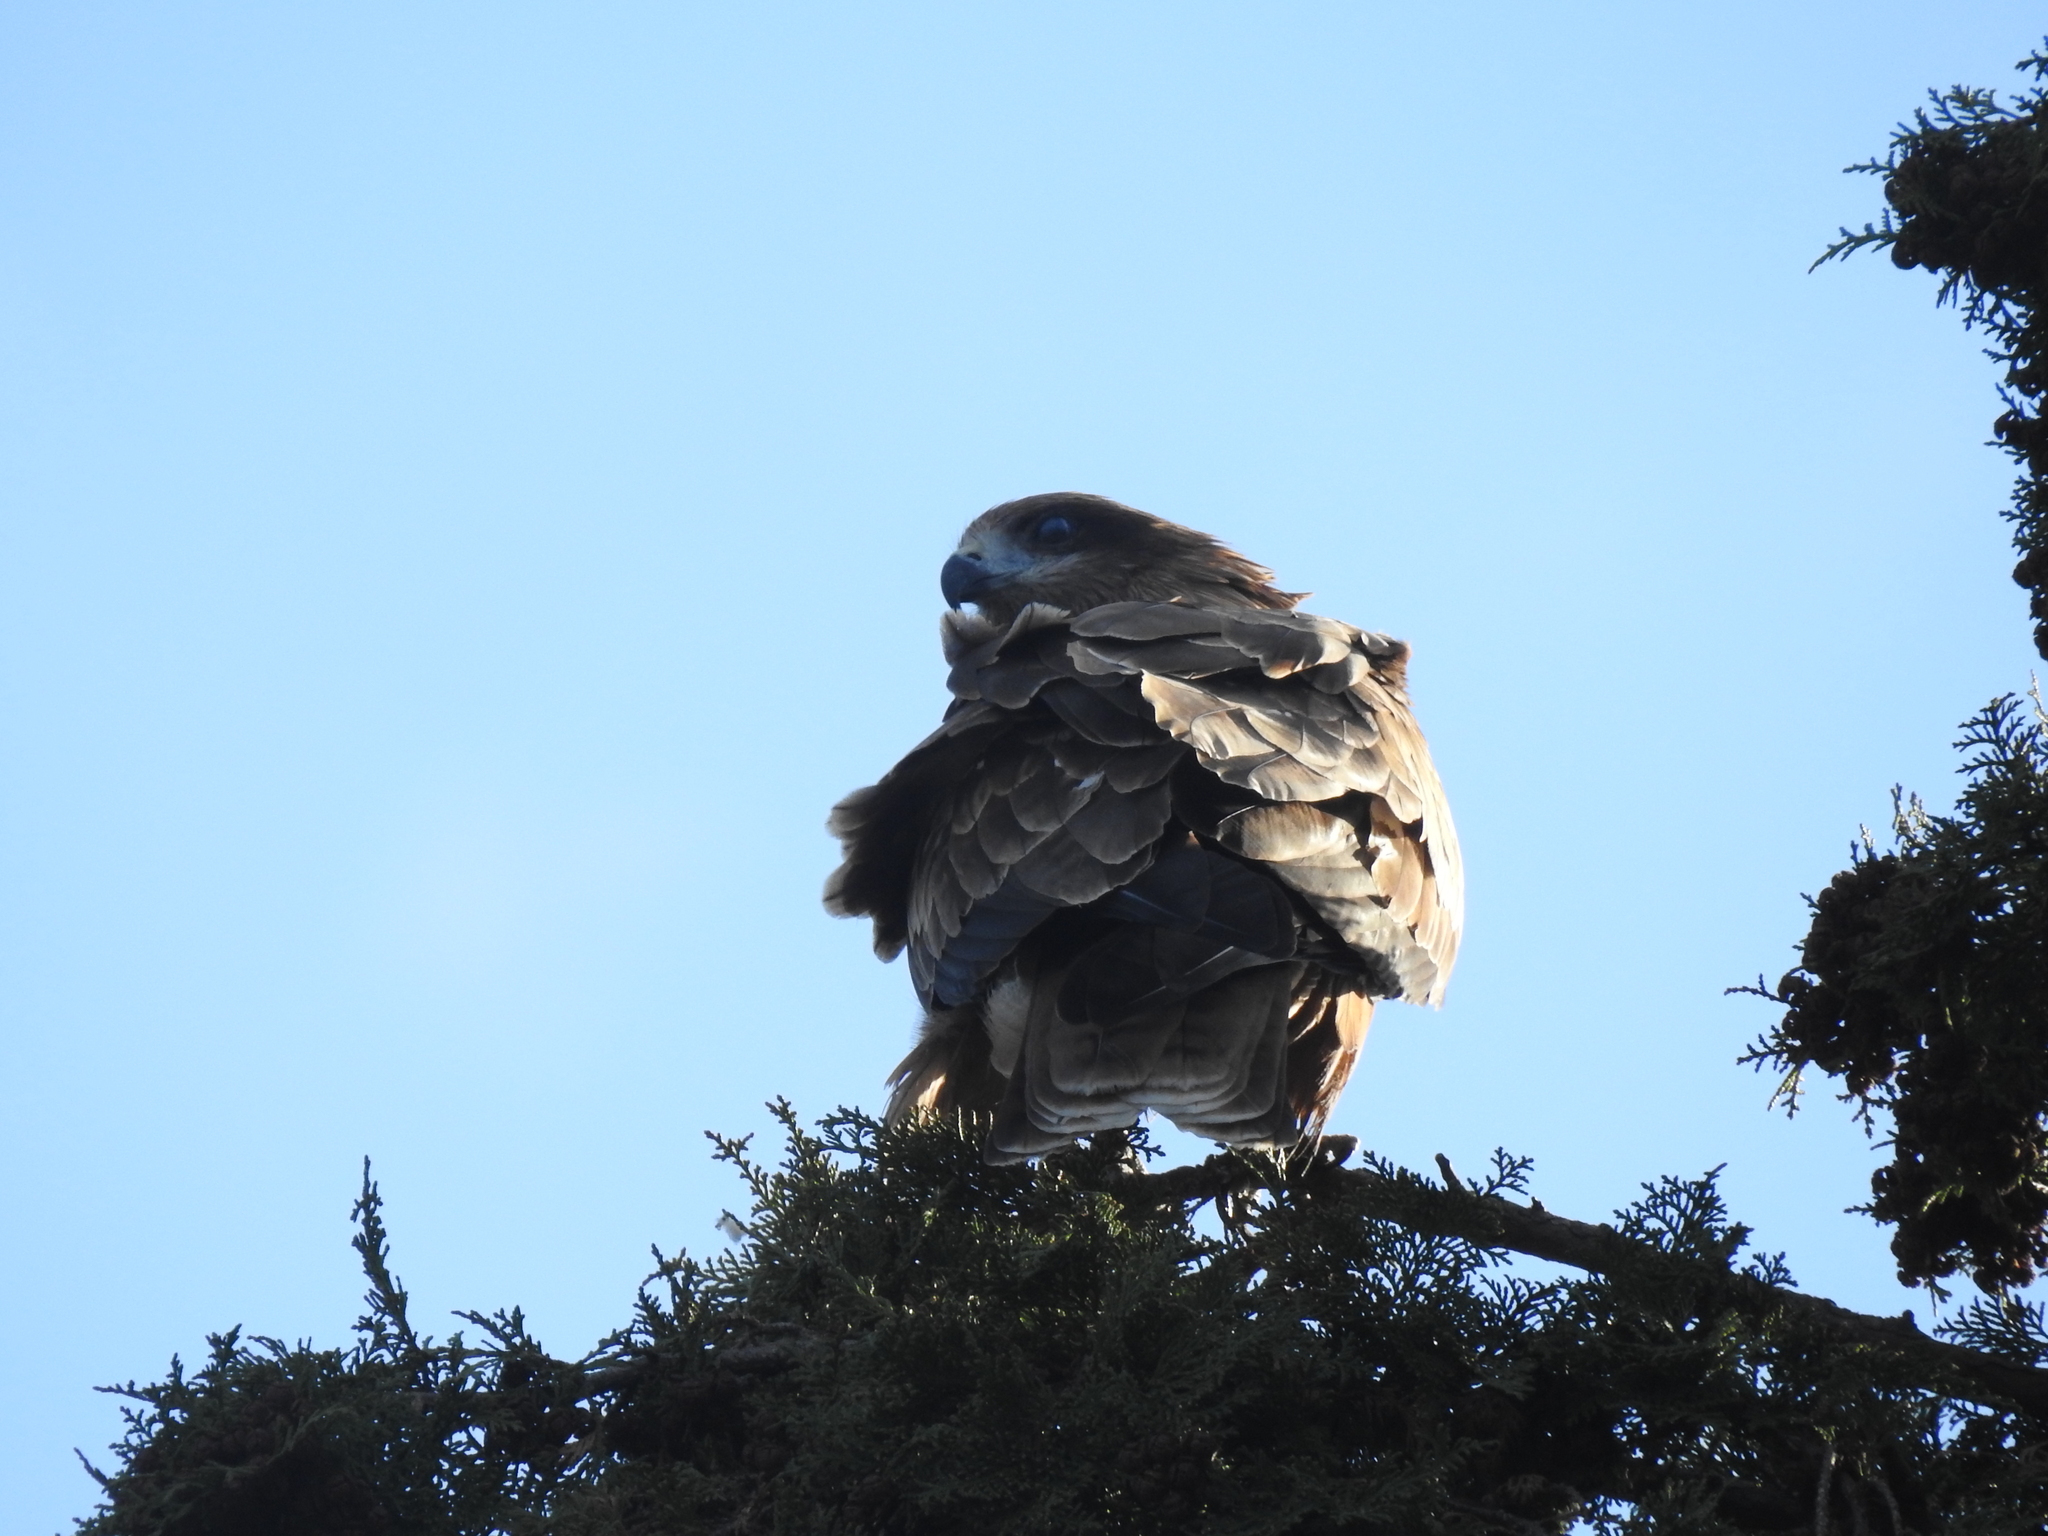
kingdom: Animalia
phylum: Chordata
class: Aves
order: Accipitriformes
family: Accipitridae
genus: Milvus
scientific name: Milvus migrans
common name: Black kite
